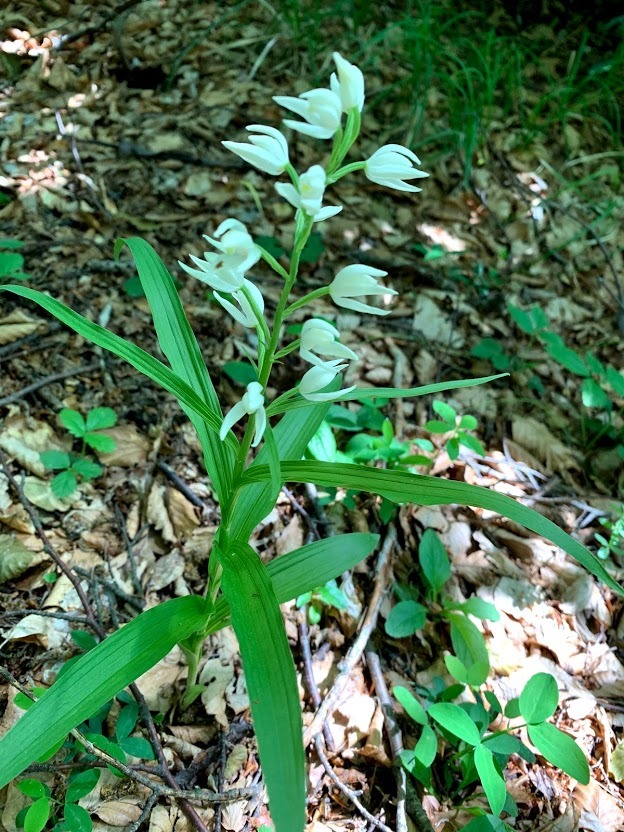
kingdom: Plantae
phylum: Tracheophyta
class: Liliopsida
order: Asparagales
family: Orchidaceae
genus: Cephalanthera
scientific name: Cephalanthera longifolia
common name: Narrow-leaved helleborine
